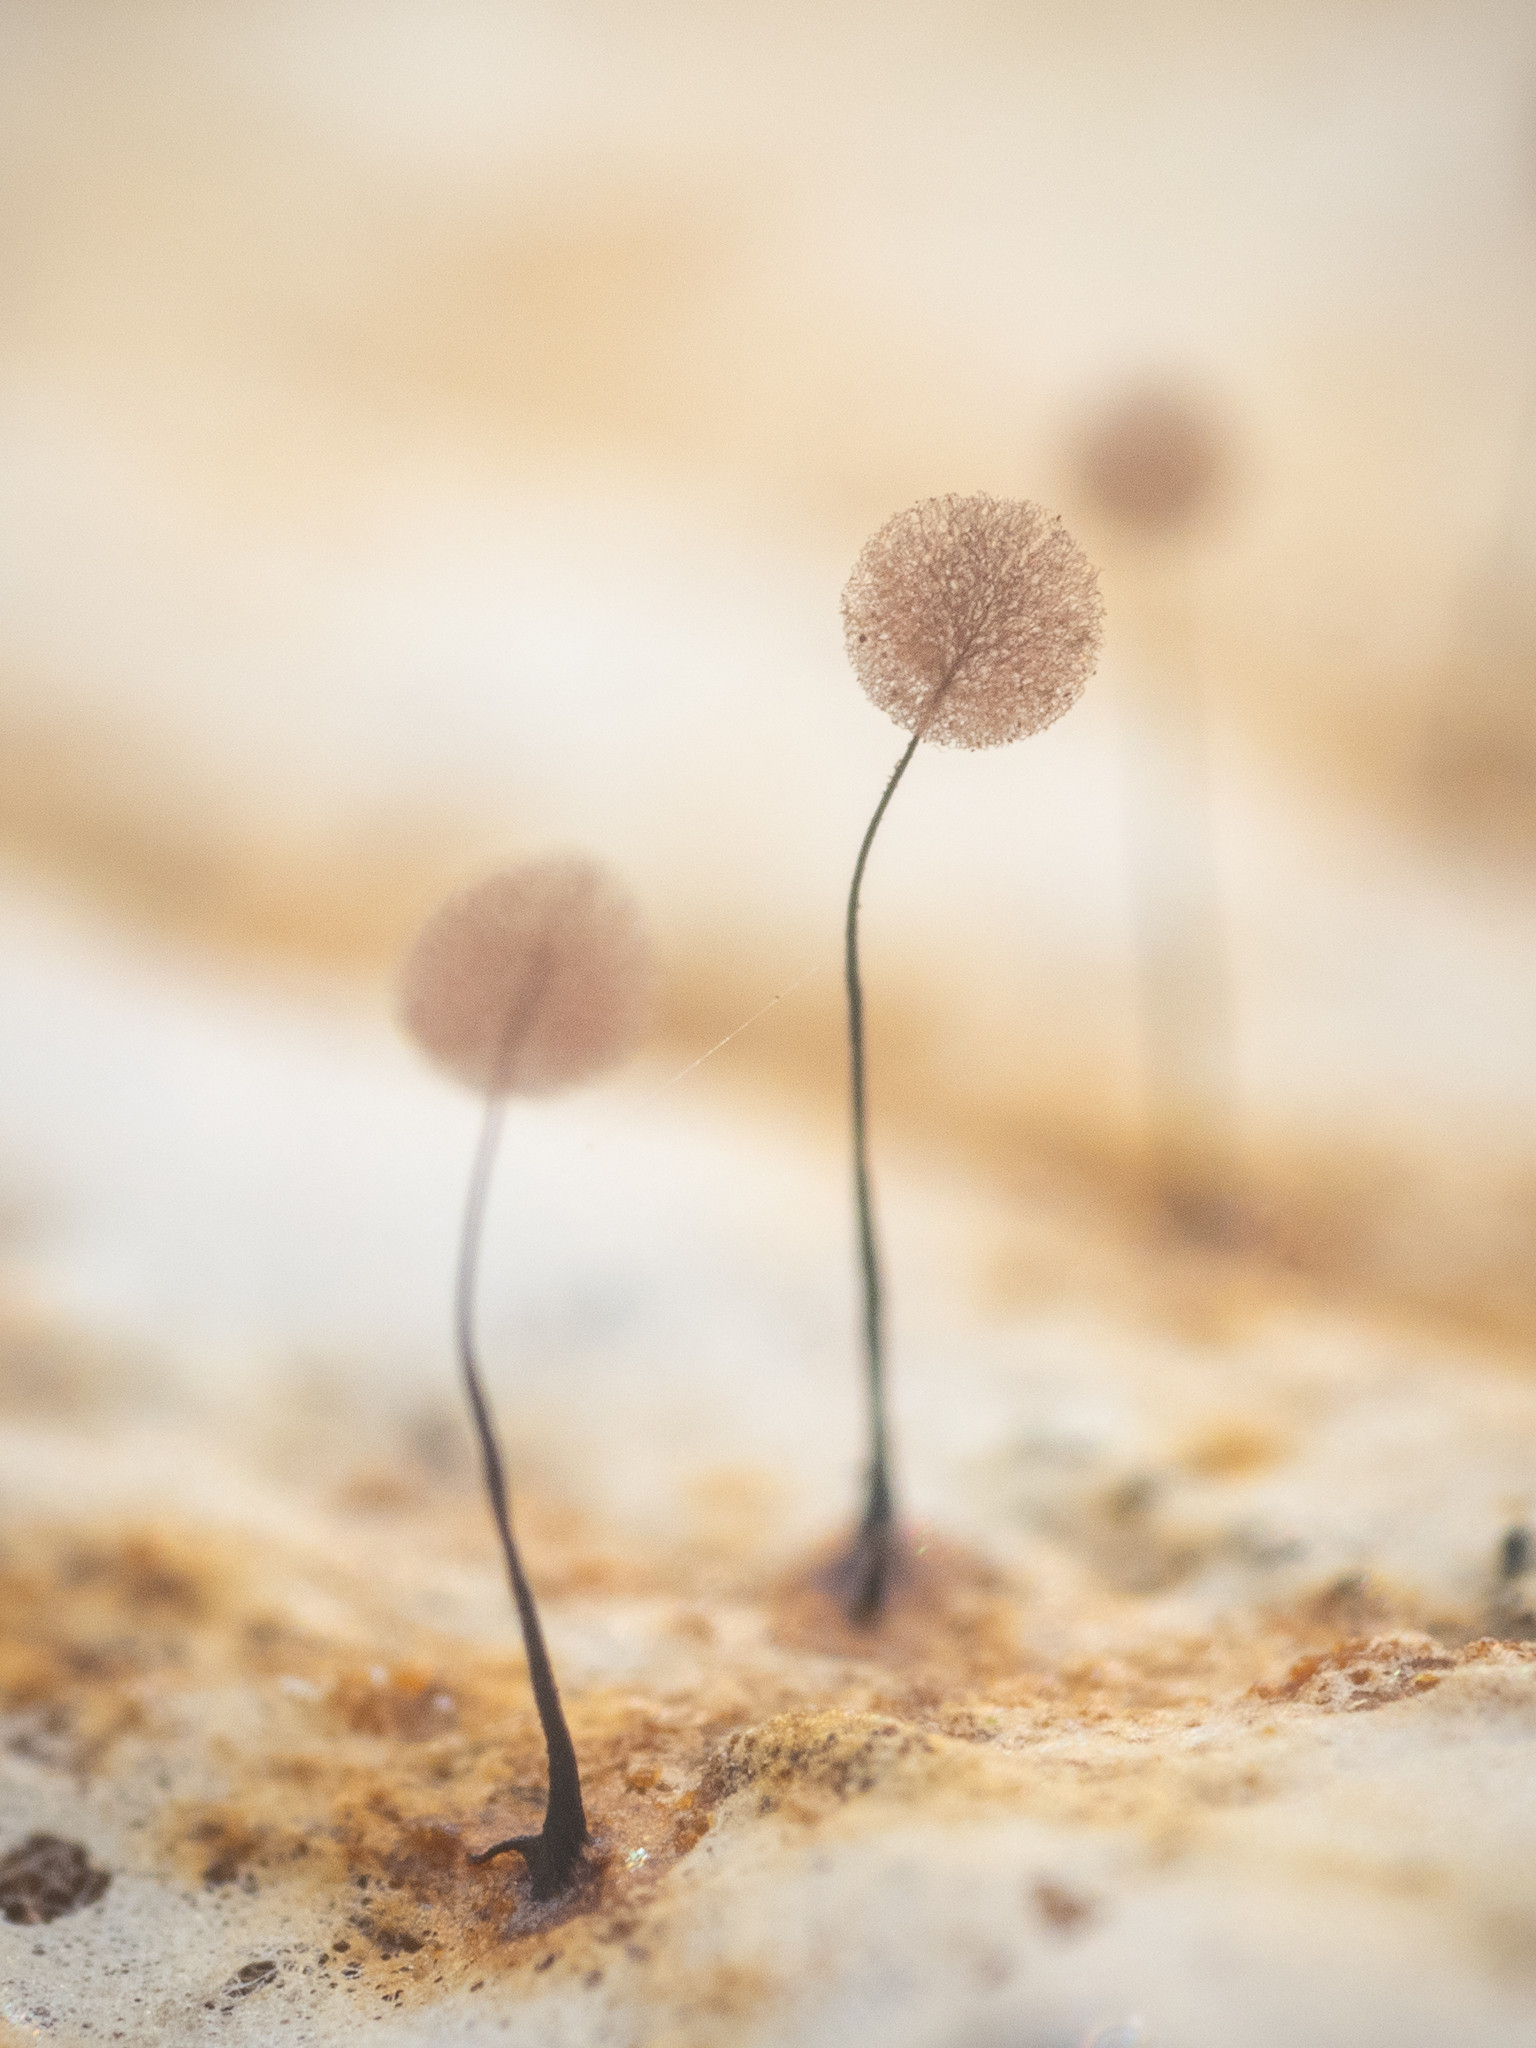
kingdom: Protozoa
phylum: Mycetozoa
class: Myxomycetes
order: Stemonitidales
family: Stemonitidaceae
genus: Comatricha
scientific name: Comatricha nigra
